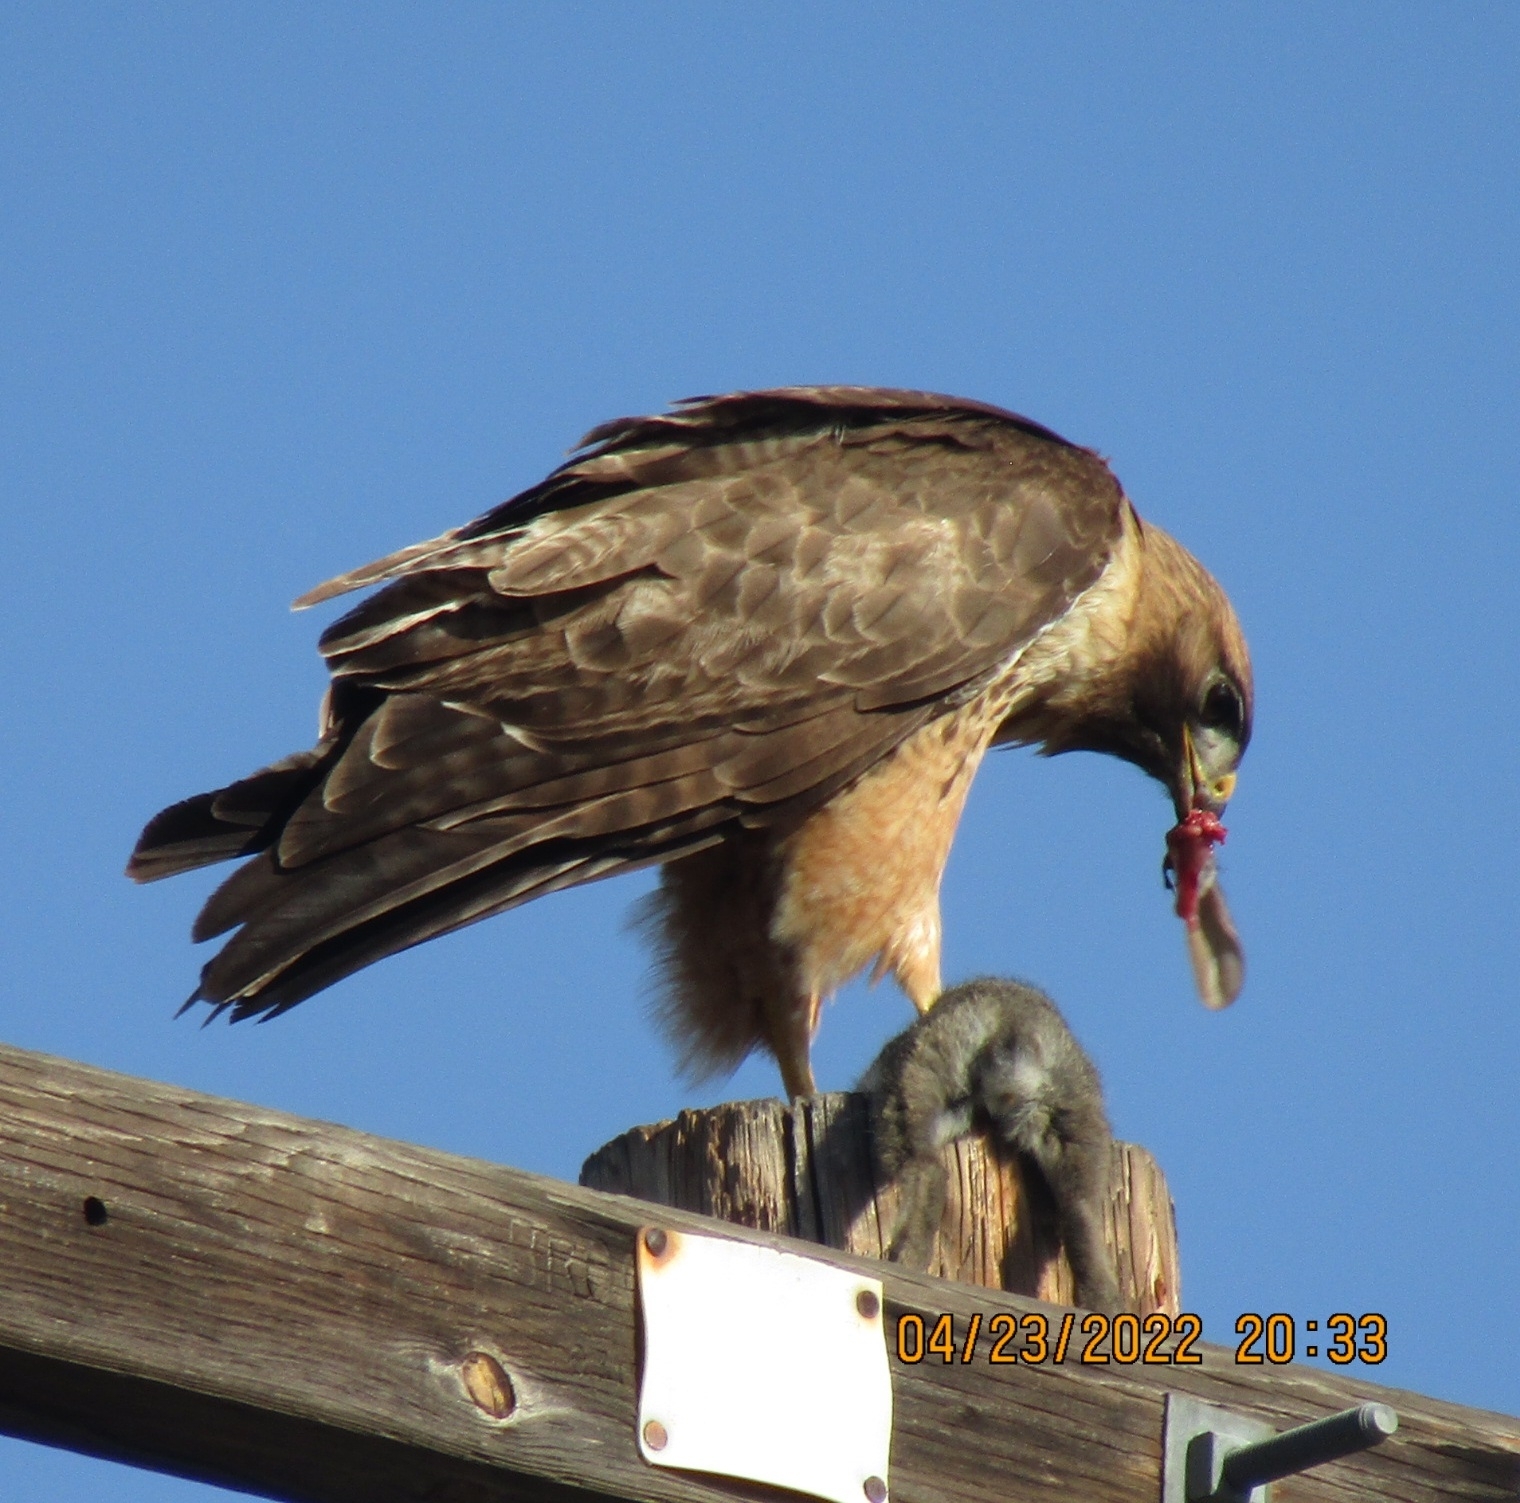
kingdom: Animalia
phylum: Chordata
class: Aves
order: Accipitriformes
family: Accipitridae
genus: Buteo
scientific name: Buteo jamaicensis
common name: Red-tailed hawk
